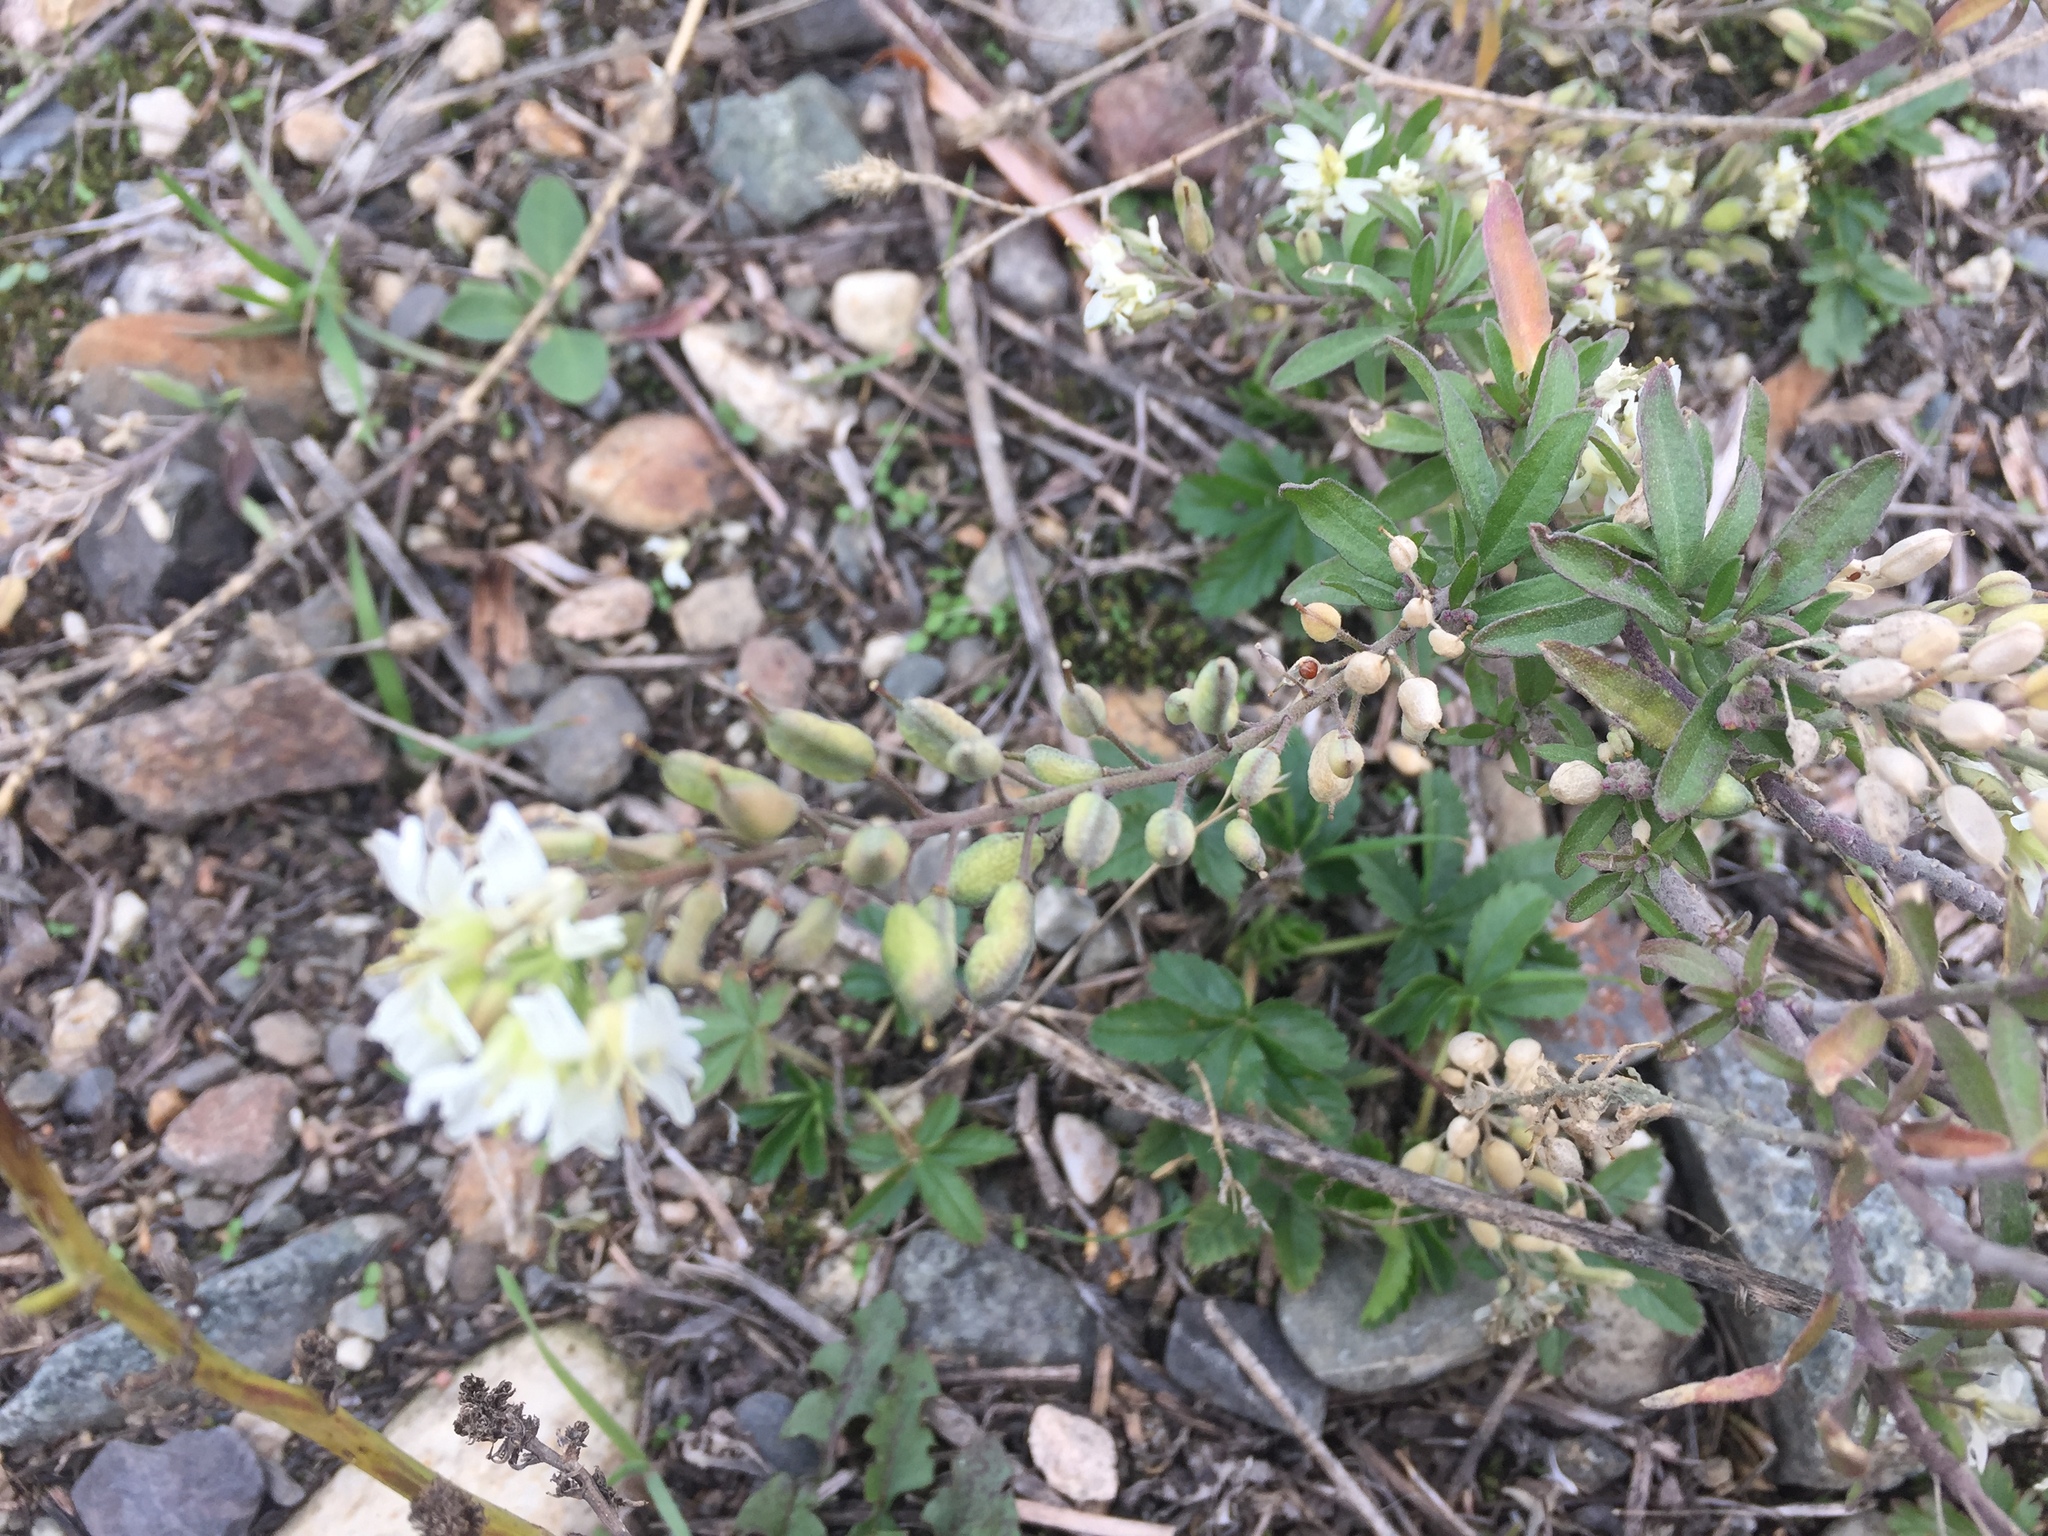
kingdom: Plantae
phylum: Tracheophyta
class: Magnoliopsida
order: Brassicales
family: Brassicaceae
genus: Berteroa
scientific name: Berteroa incana
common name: Hoary alison
